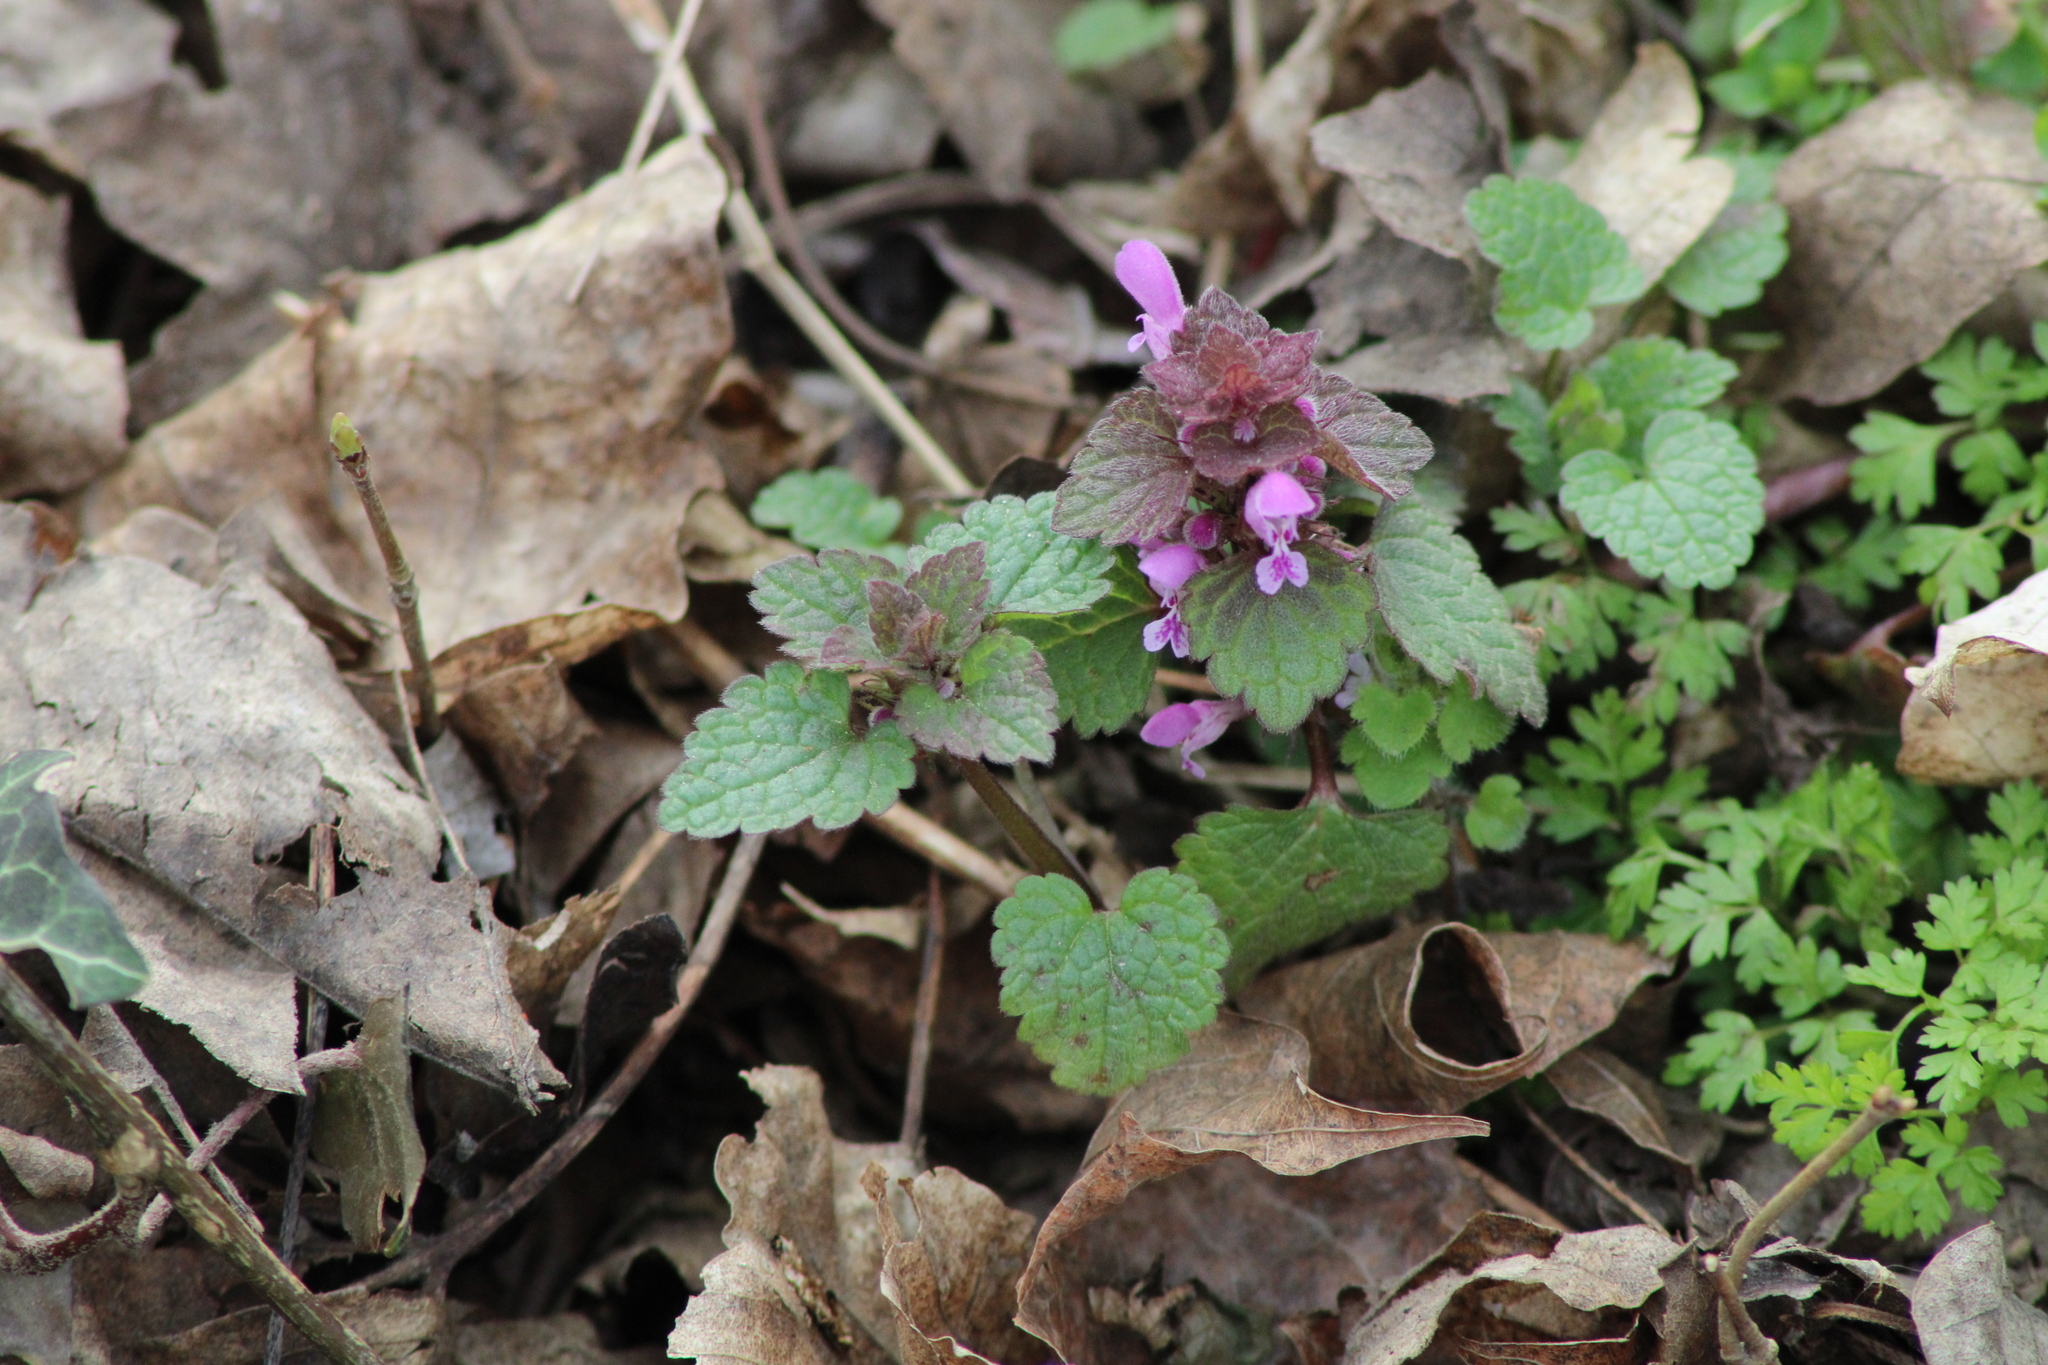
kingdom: Plantae
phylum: Tracheophyta
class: Magnoliopsida
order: Lamiales
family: Lamiaceae
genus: Lamium
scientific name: Lamium purpureum
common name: Red dead-nettle
